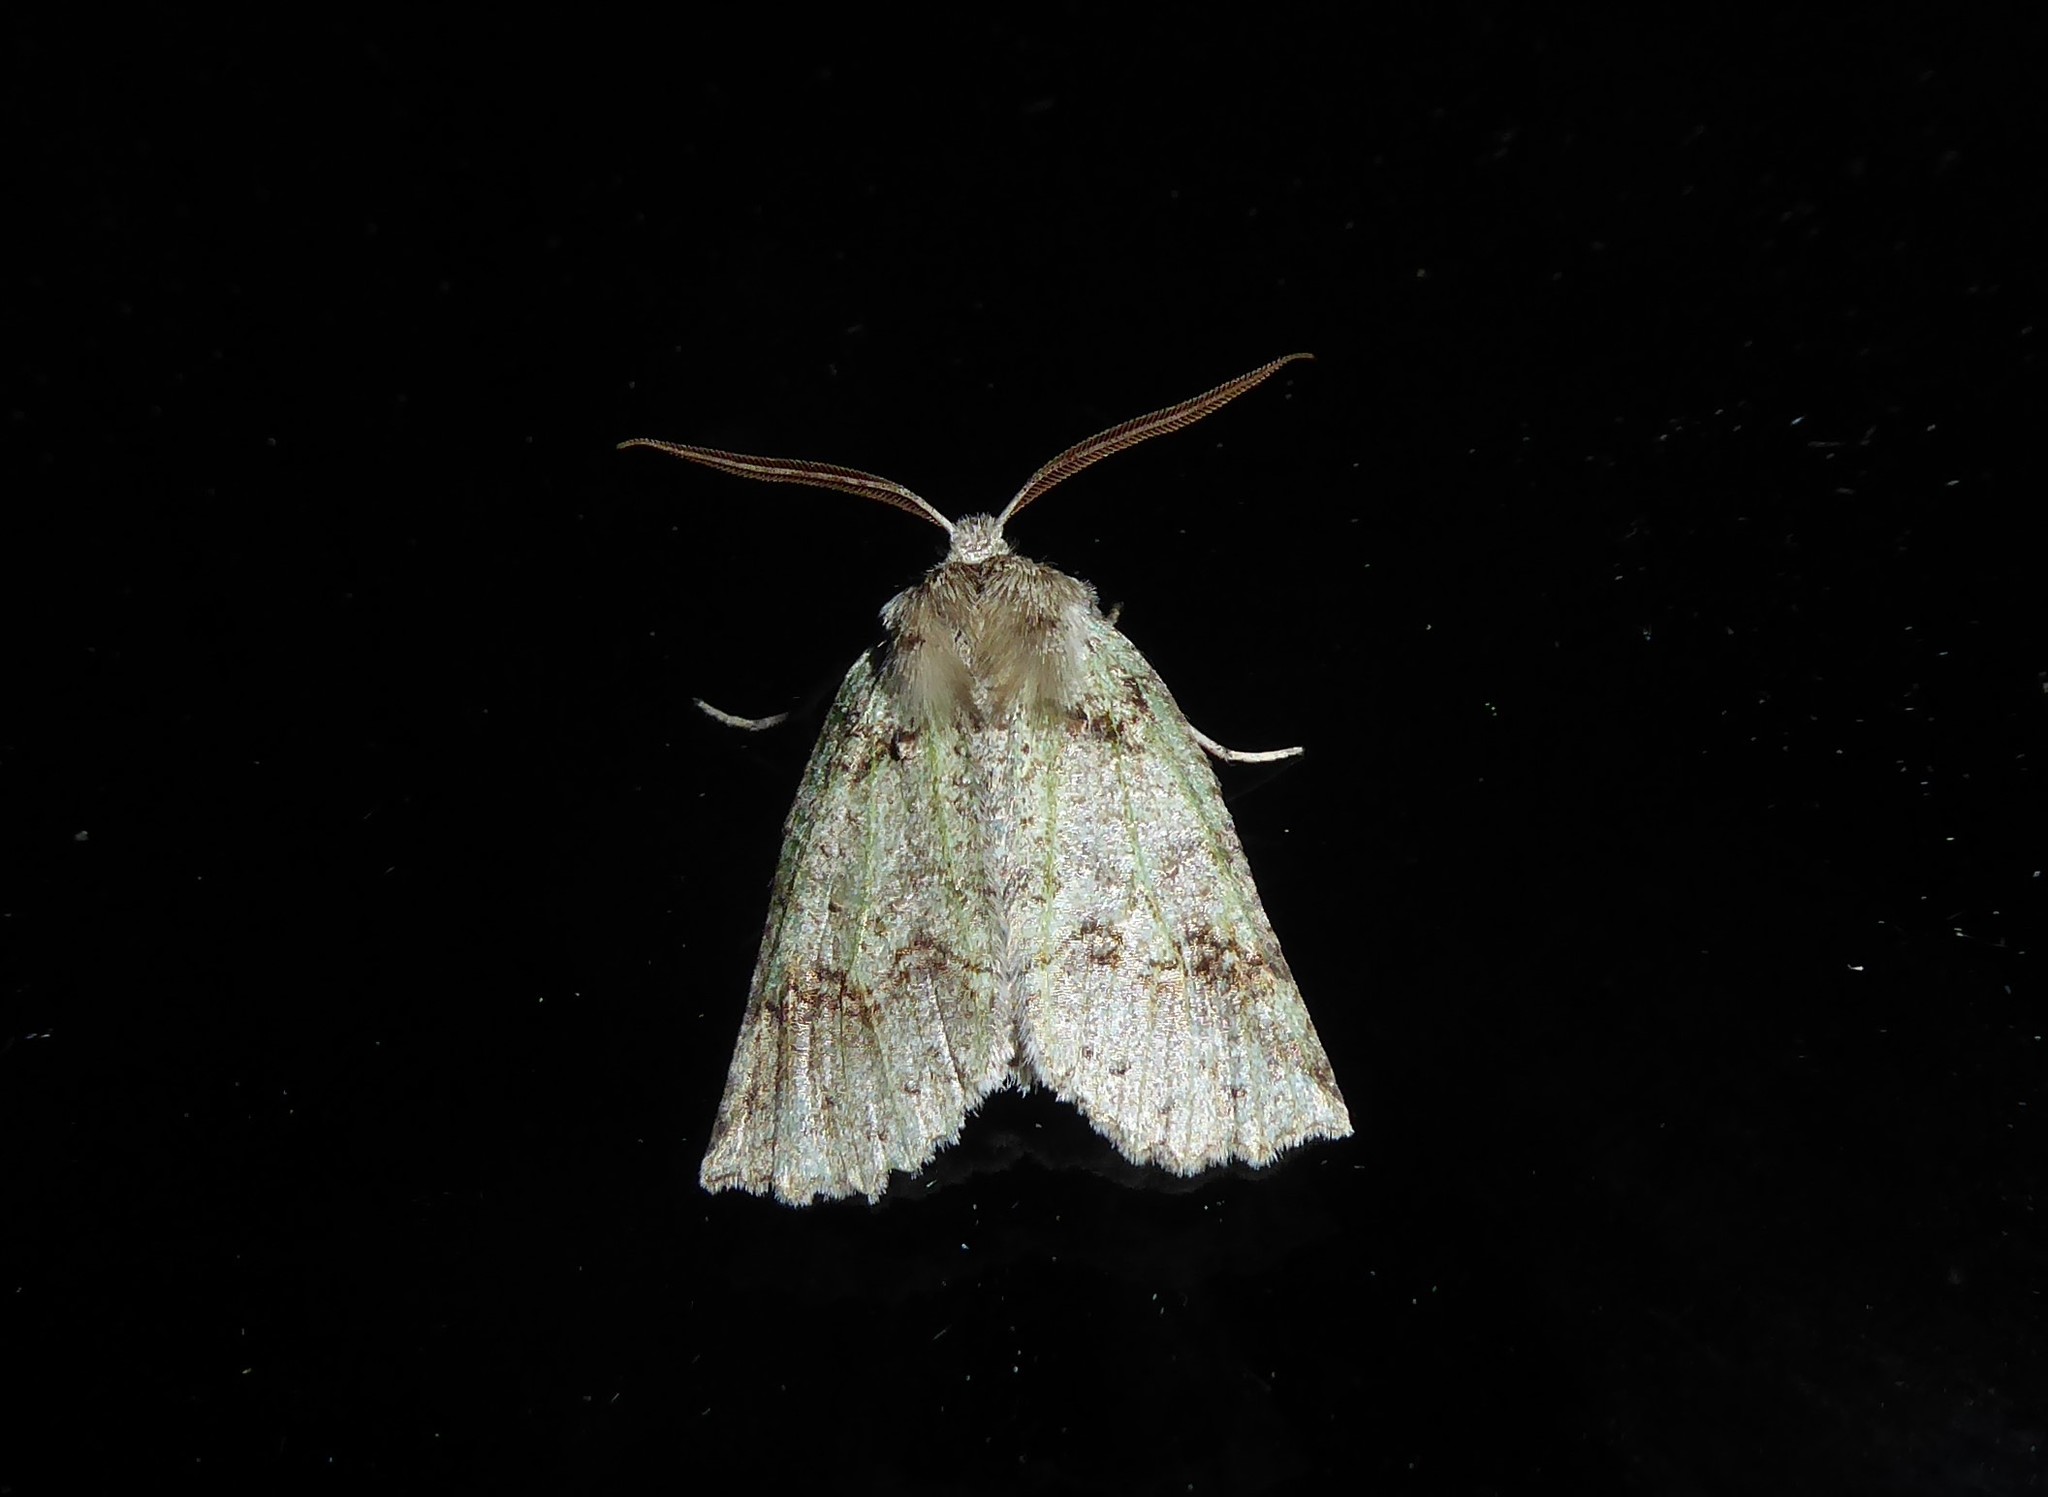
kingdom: Animalia
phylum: Arthropoda
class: Insecta
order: Lepidoptera
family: Geometridae
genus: Declana
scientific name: Declana floccosa
